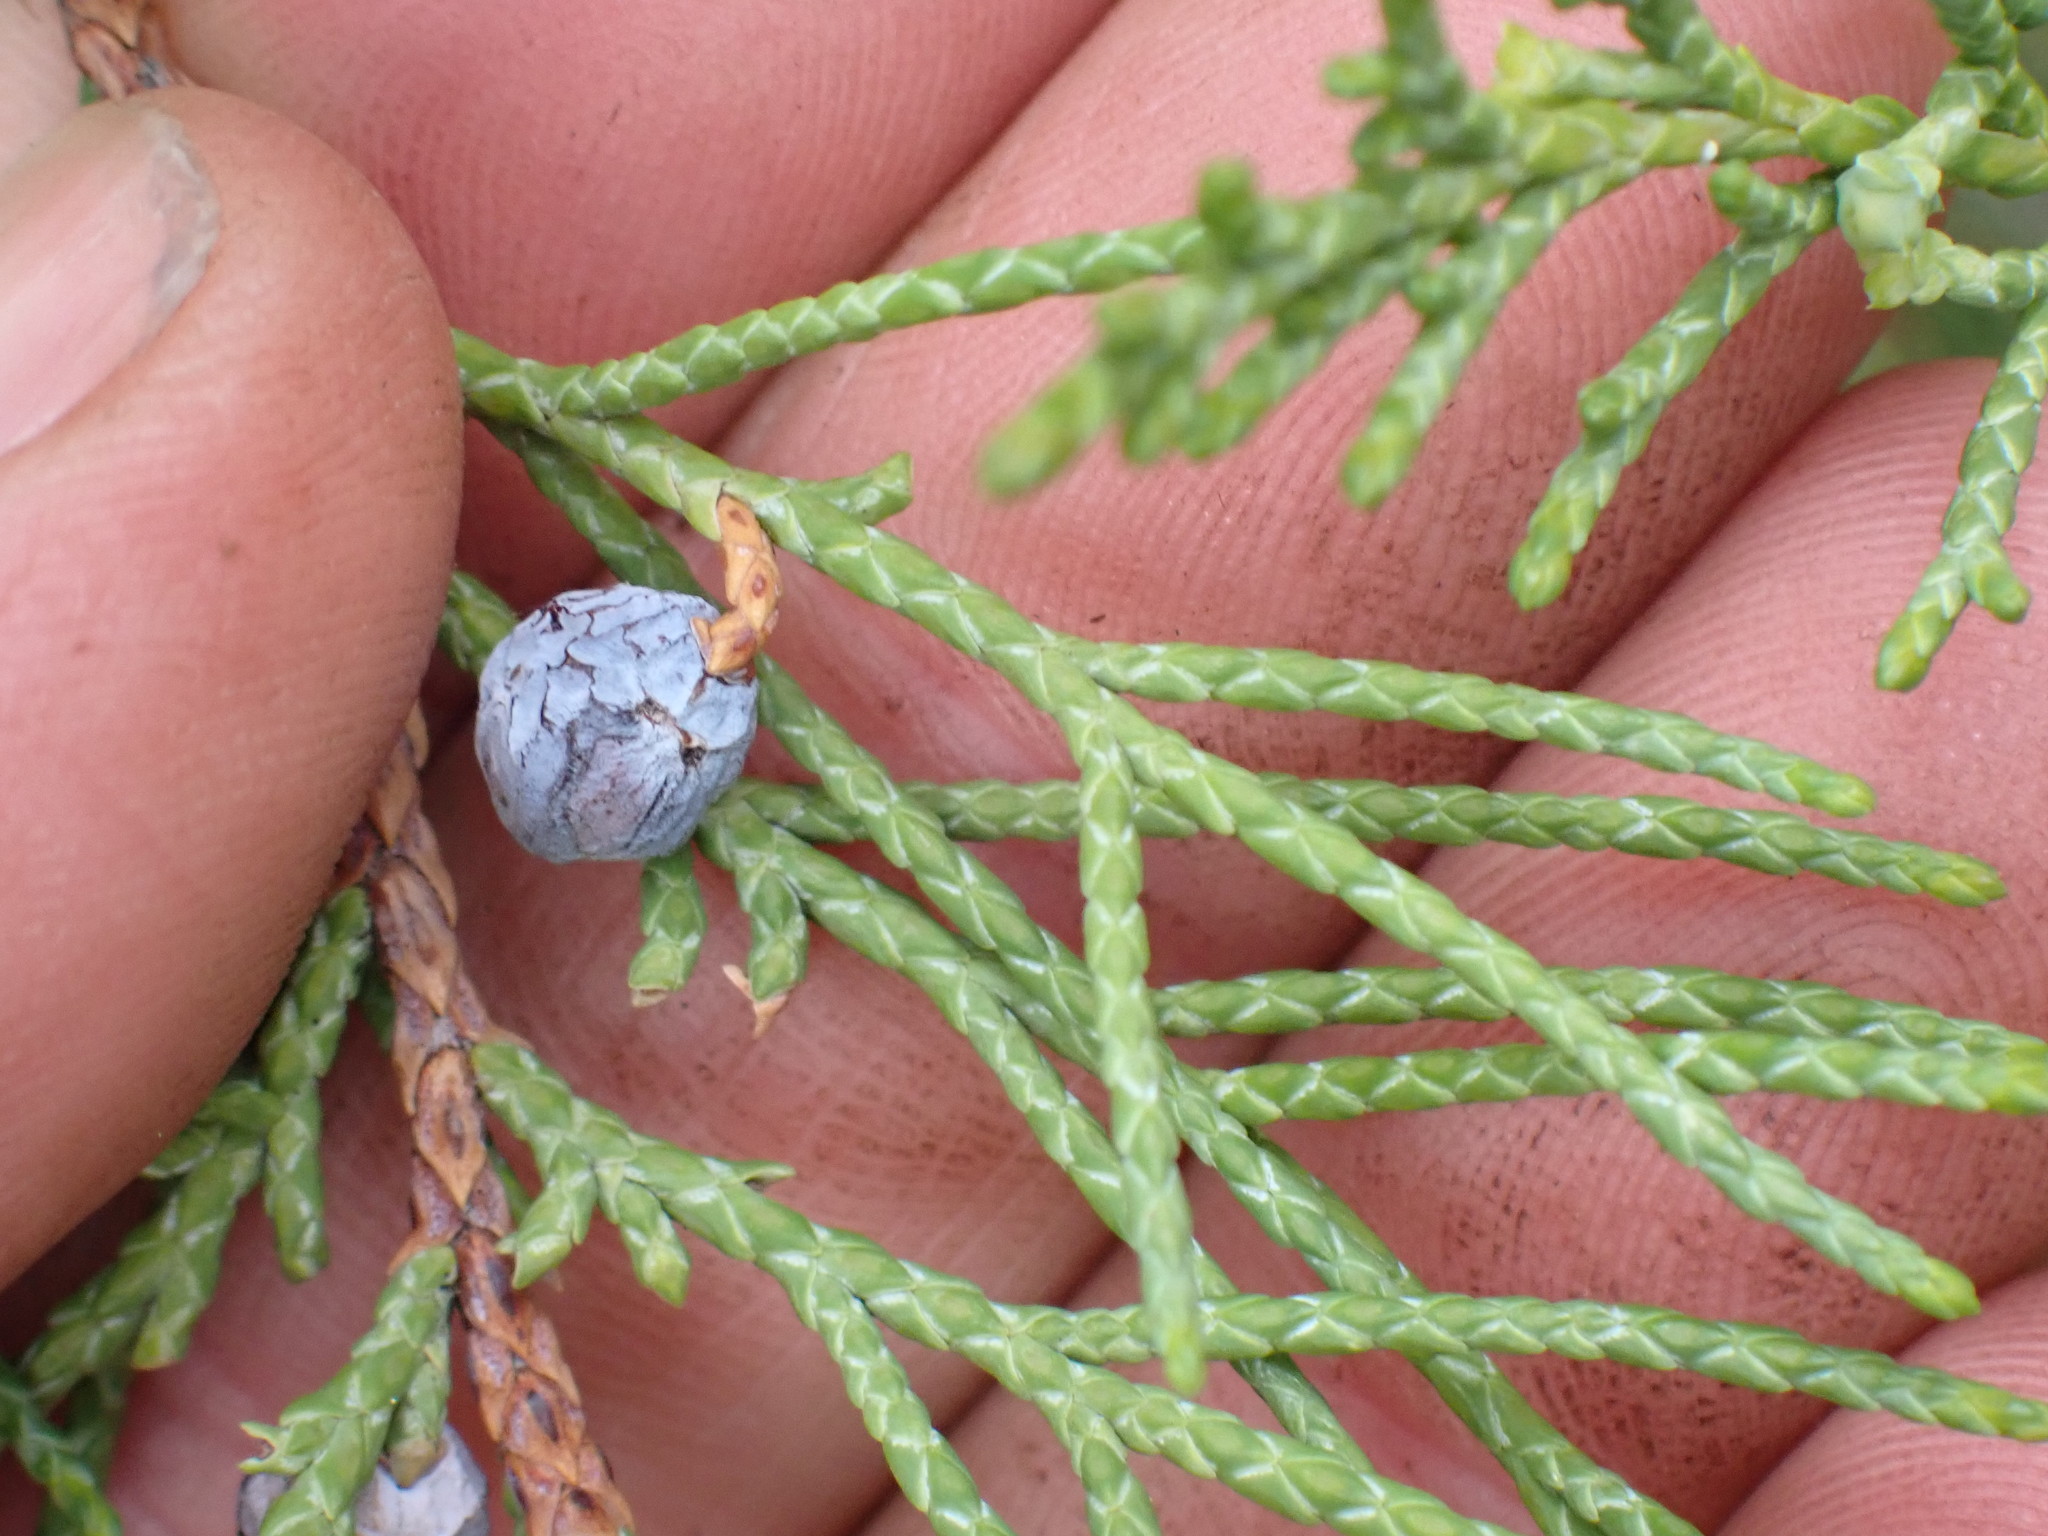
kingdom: Plantae
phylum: Tracheophyta
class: Pinopsida
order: Pinales
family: Cupressaceae
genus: Juniperus
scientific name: Juniperus scopulorum
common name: Rocky mountain juniper
